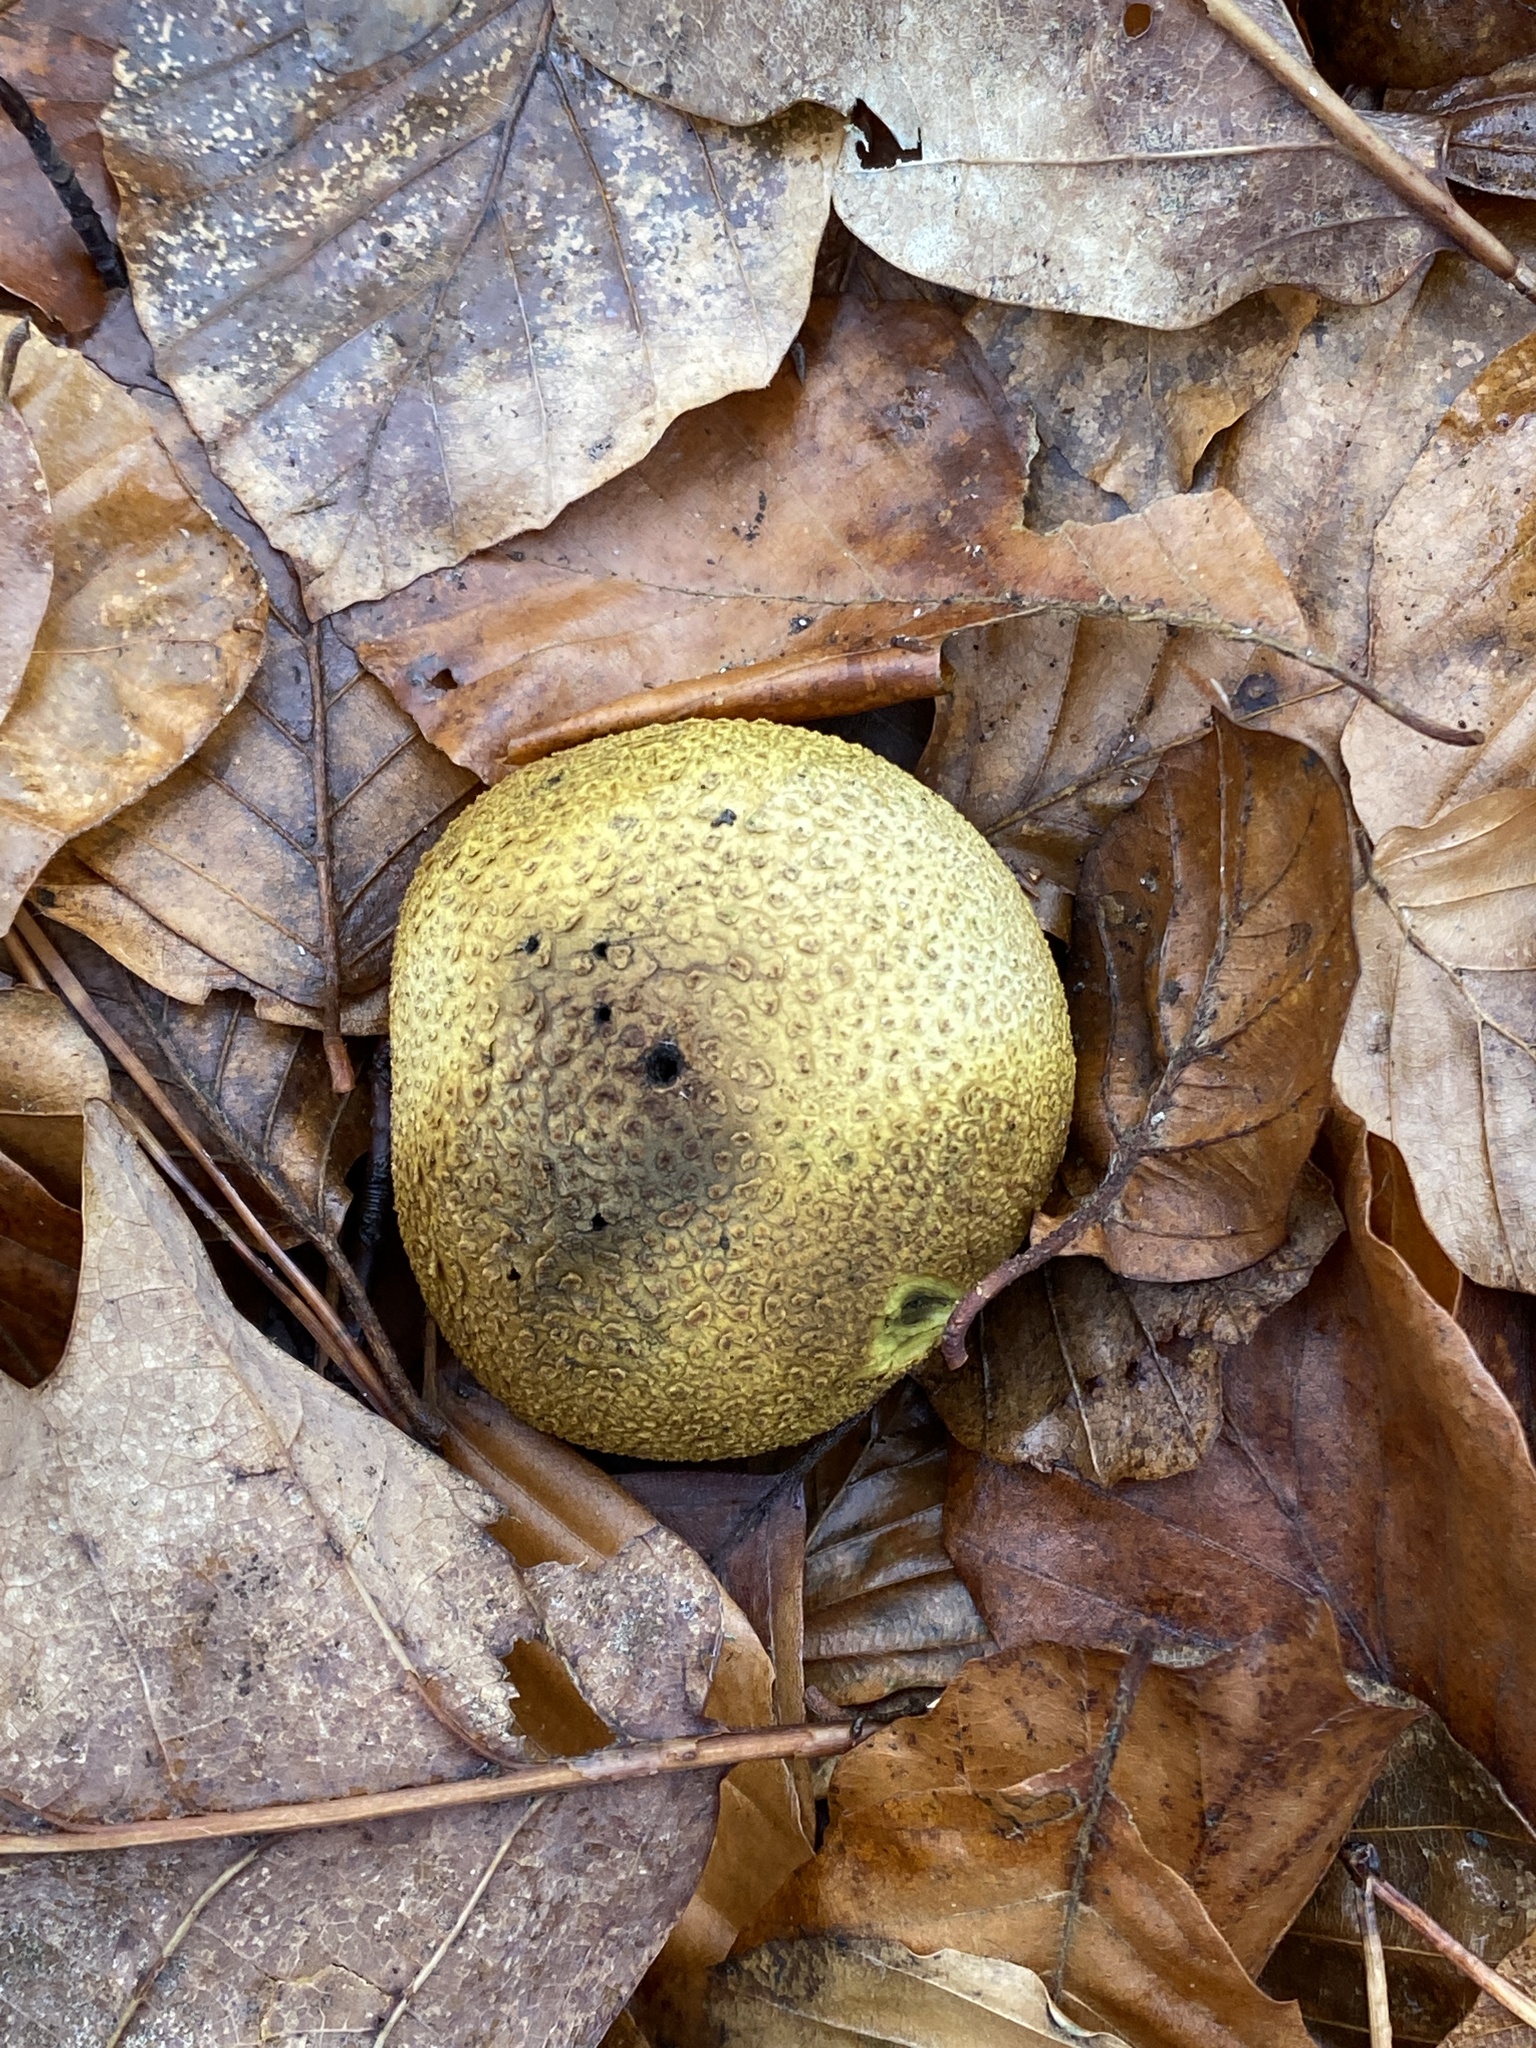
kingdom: Fungi
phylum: Basidiomycota
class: Agaricomycetes
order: Boletales
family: Sclerodermataceae
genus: Scleroderma
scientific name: Scleroderma citrinum
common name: Common earthball
